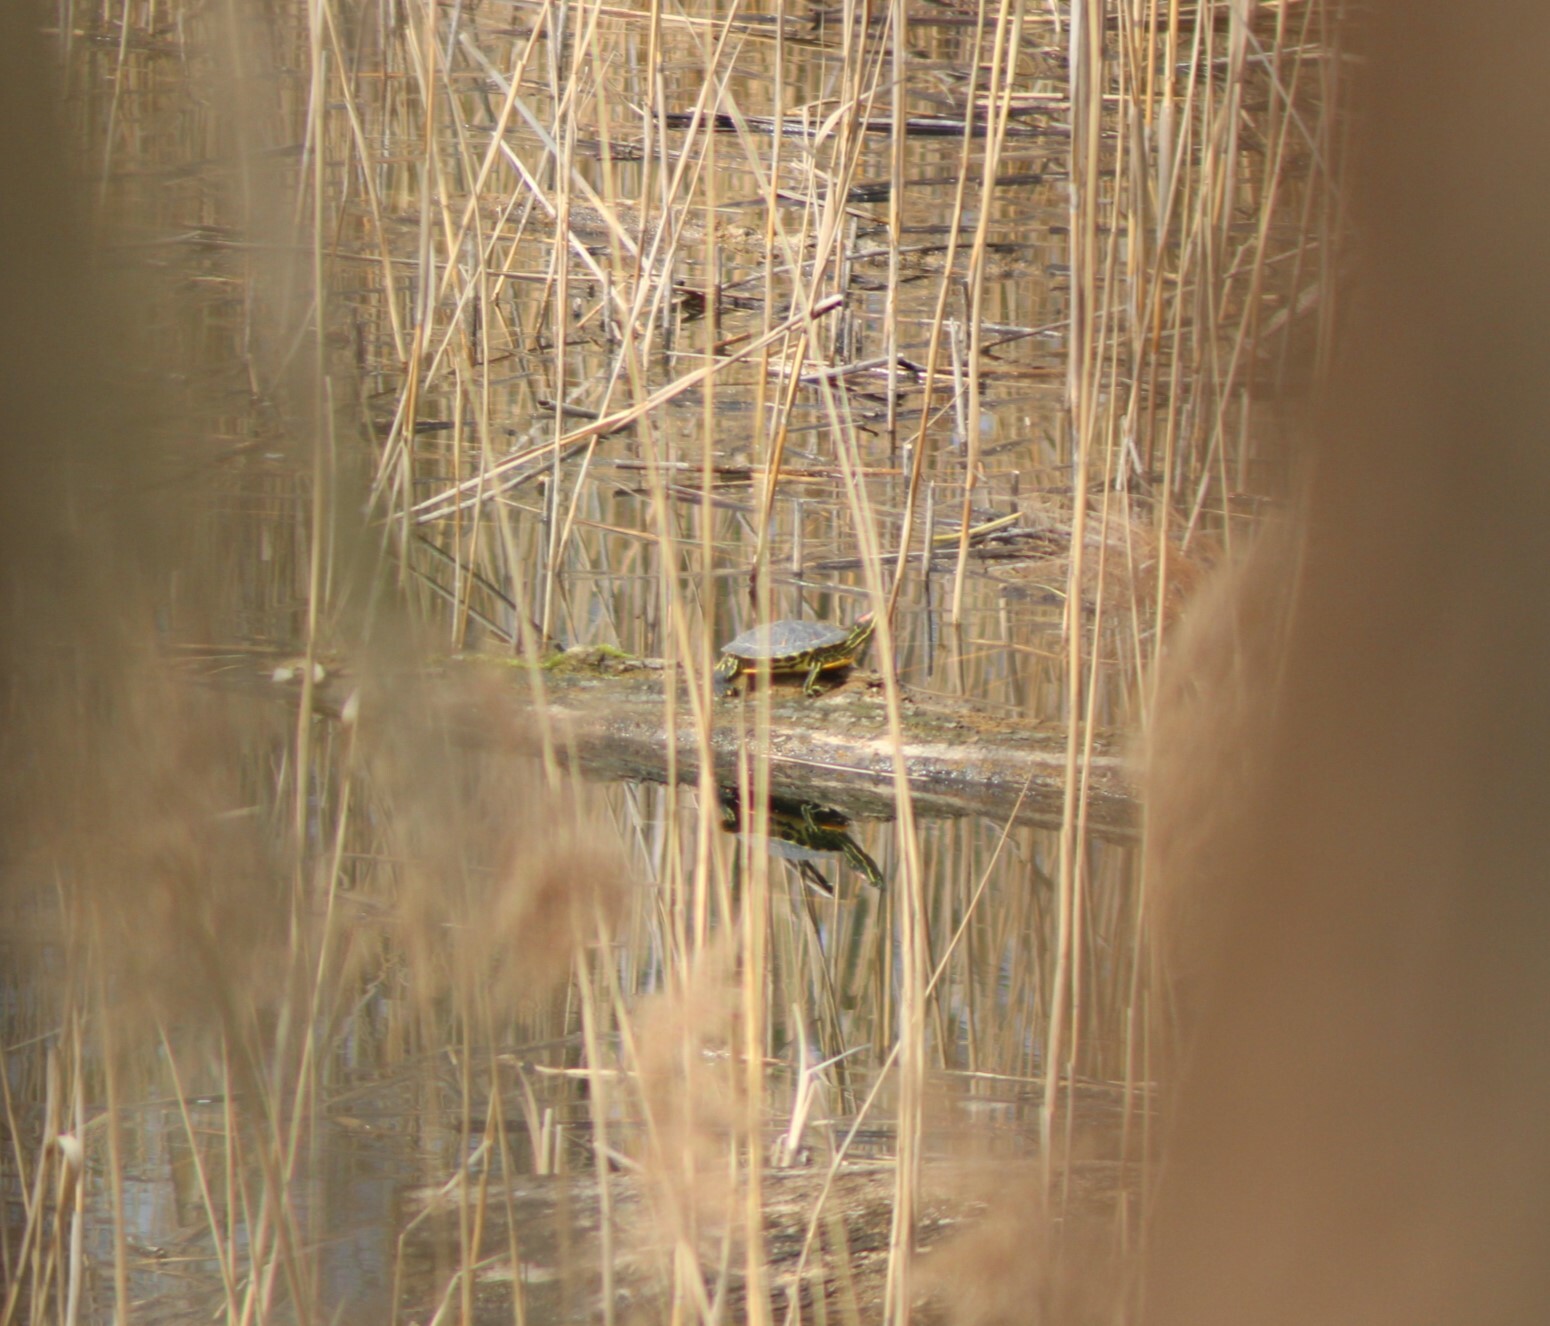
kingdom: Animalia
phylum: Chordata
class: Testudines
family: Emydidae
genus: Trachemys
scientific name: Trachemys scripta
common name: Slider
